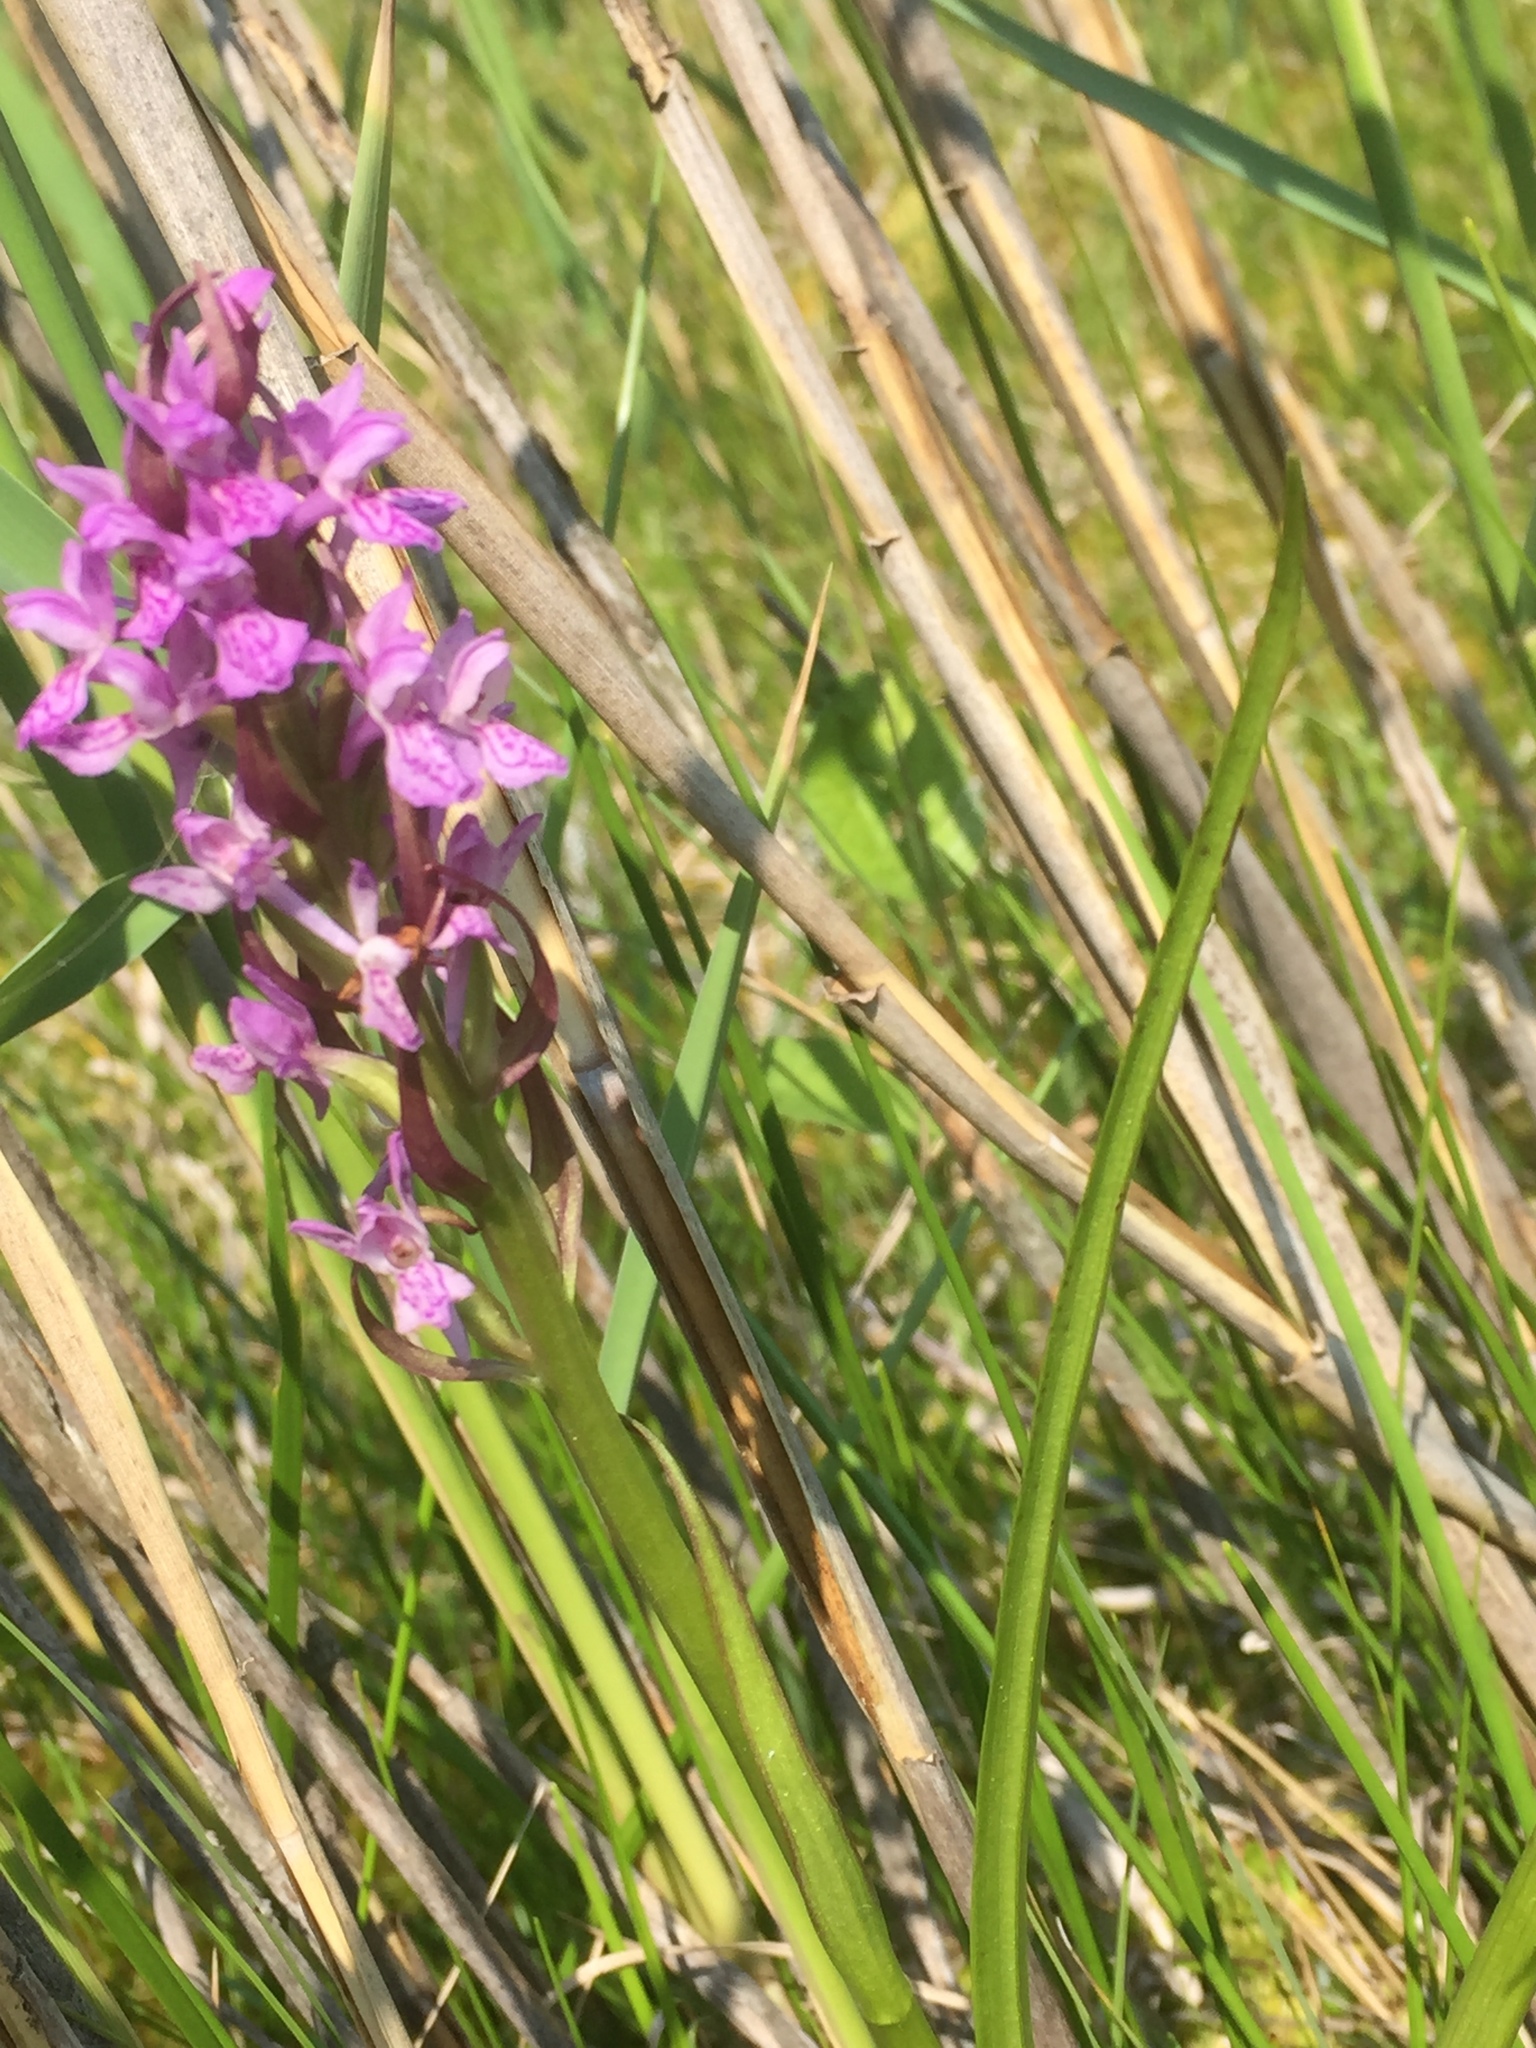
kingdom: Plantae
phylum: Tracheophyta
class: Liliopsida
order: Asparagales
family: Orchidaceae
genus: Dactylorhiza
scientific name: Dactylorhiza incarnata
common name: Early marsh-orchid
